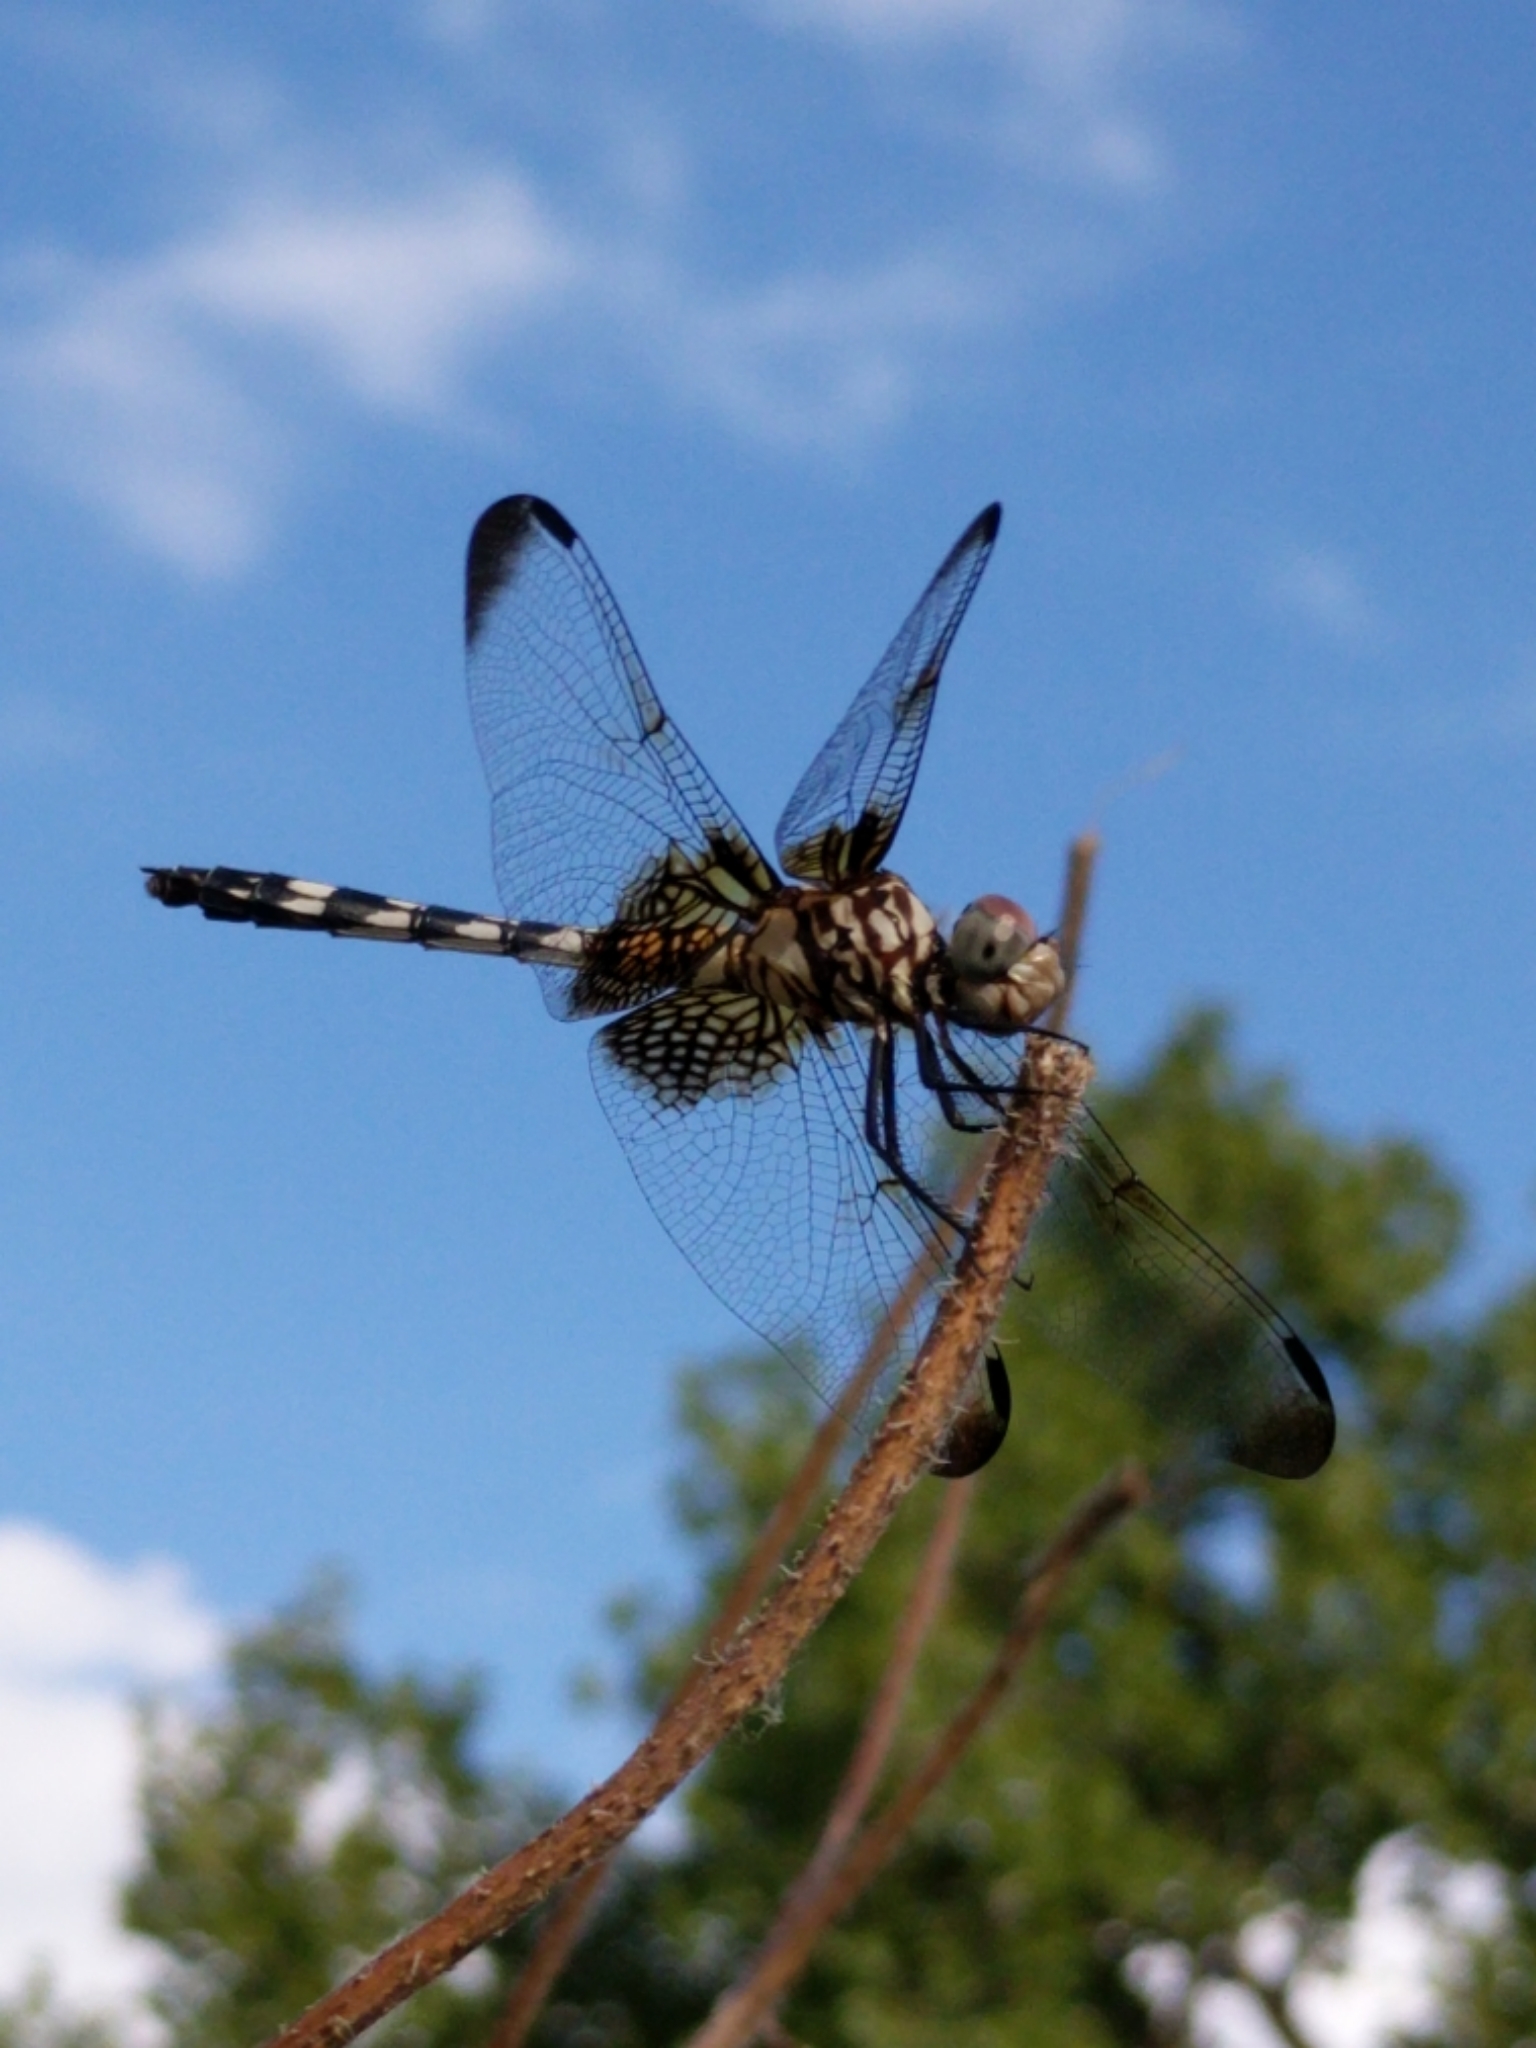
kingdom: Animalia
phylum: Arthropoda
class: Insecta
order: Odonata
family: Libellulidae
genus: Dythemis
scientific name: Dythemis fugax
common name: Checkered setwing
